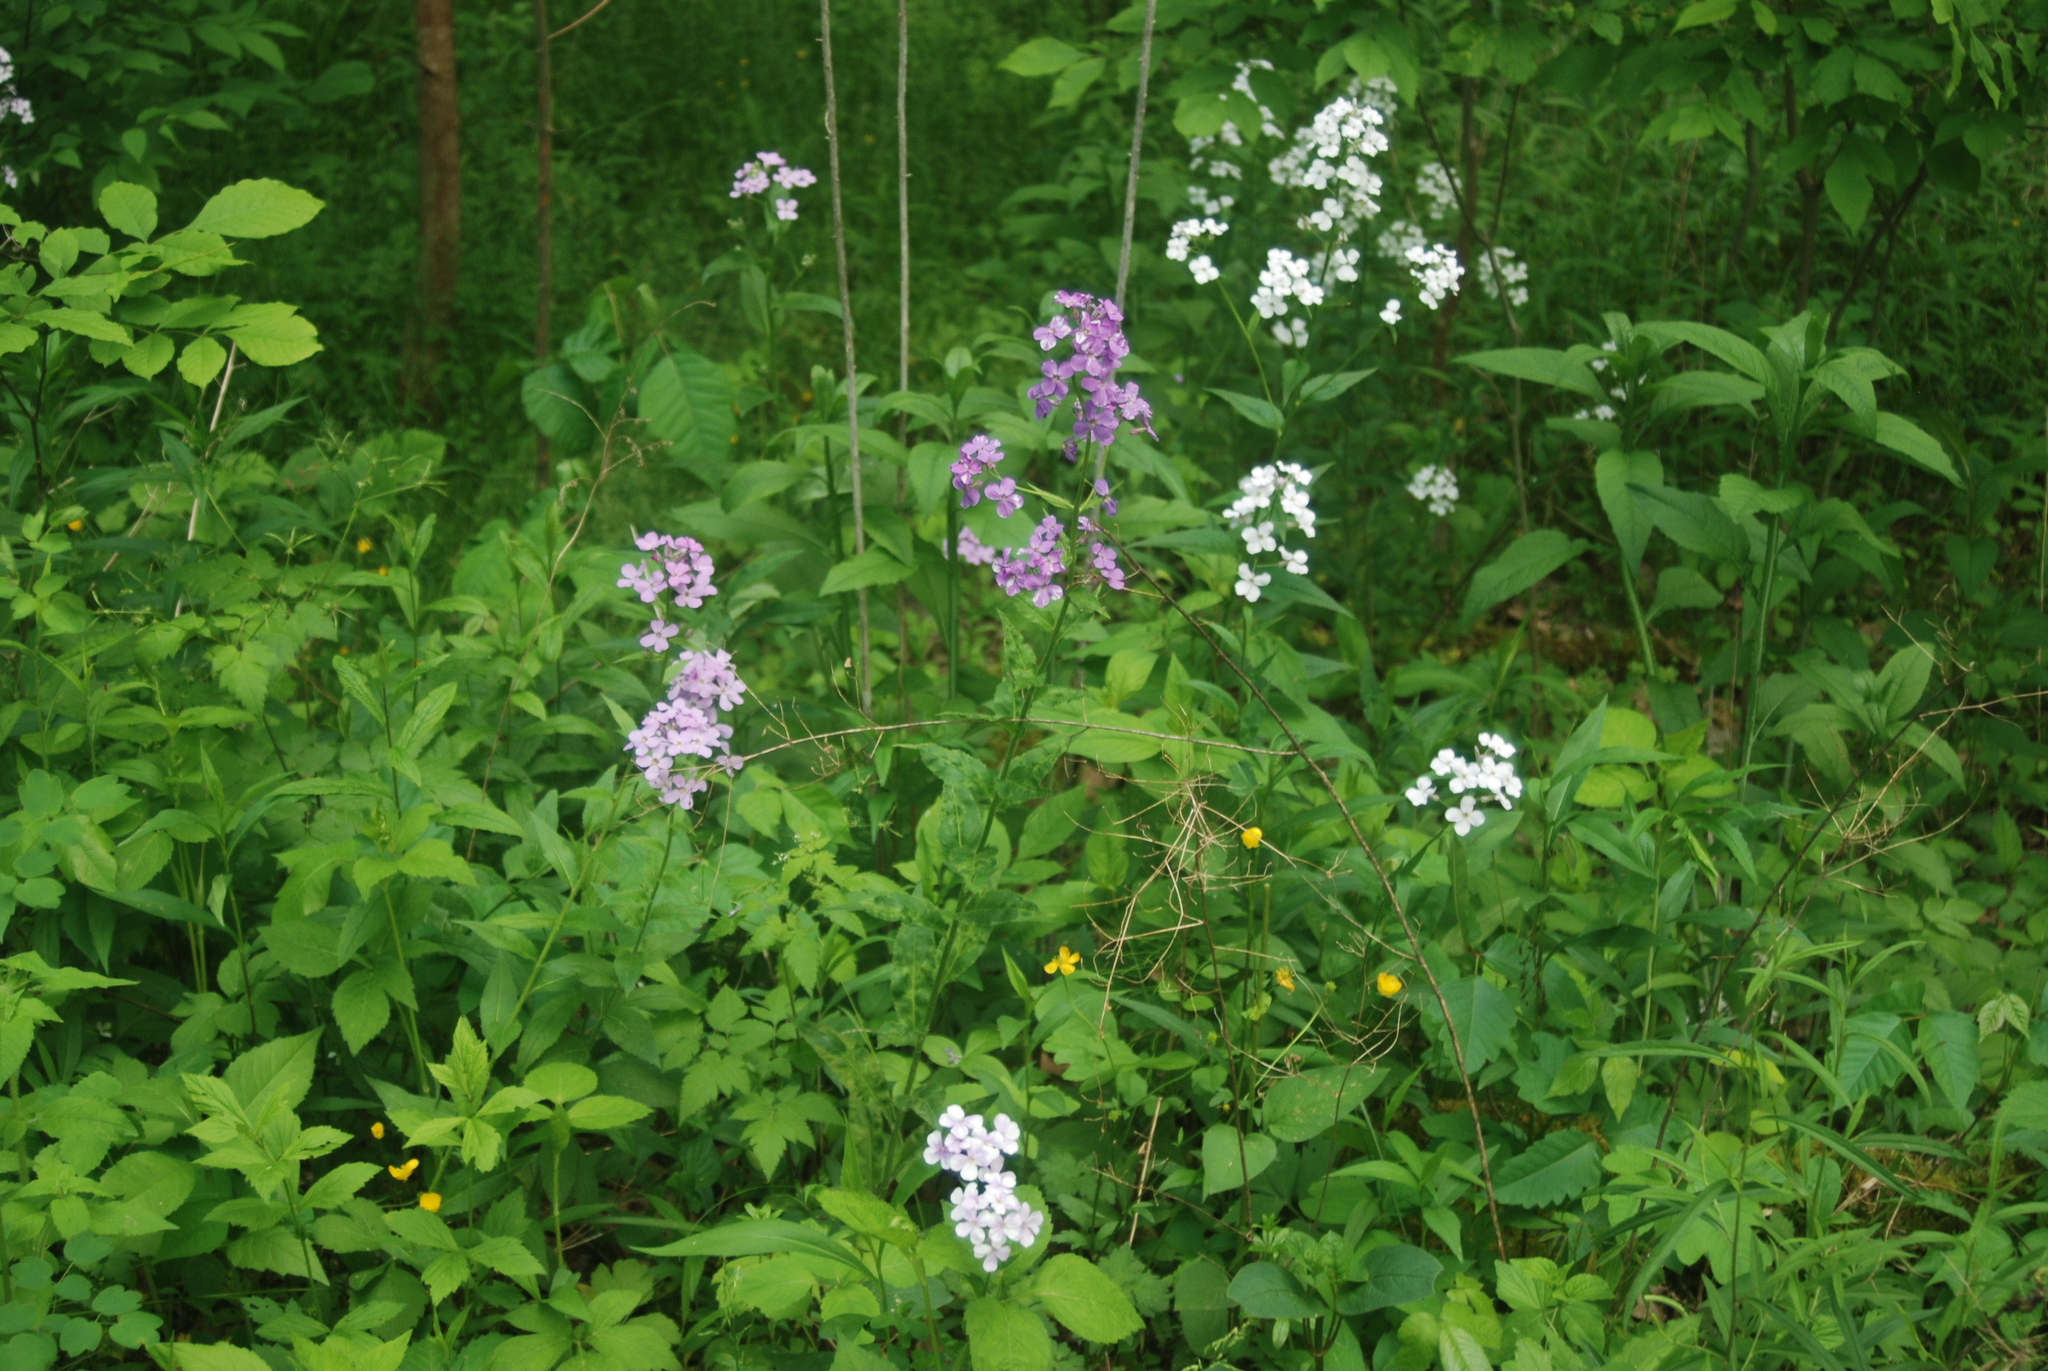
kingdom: Plantae
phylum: Tracheophyta
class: Magnoliopsida
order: Brassicales
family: Brassicaceae
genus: Hesperis
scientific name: Hesperis matronalis
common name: Dame's-violet
